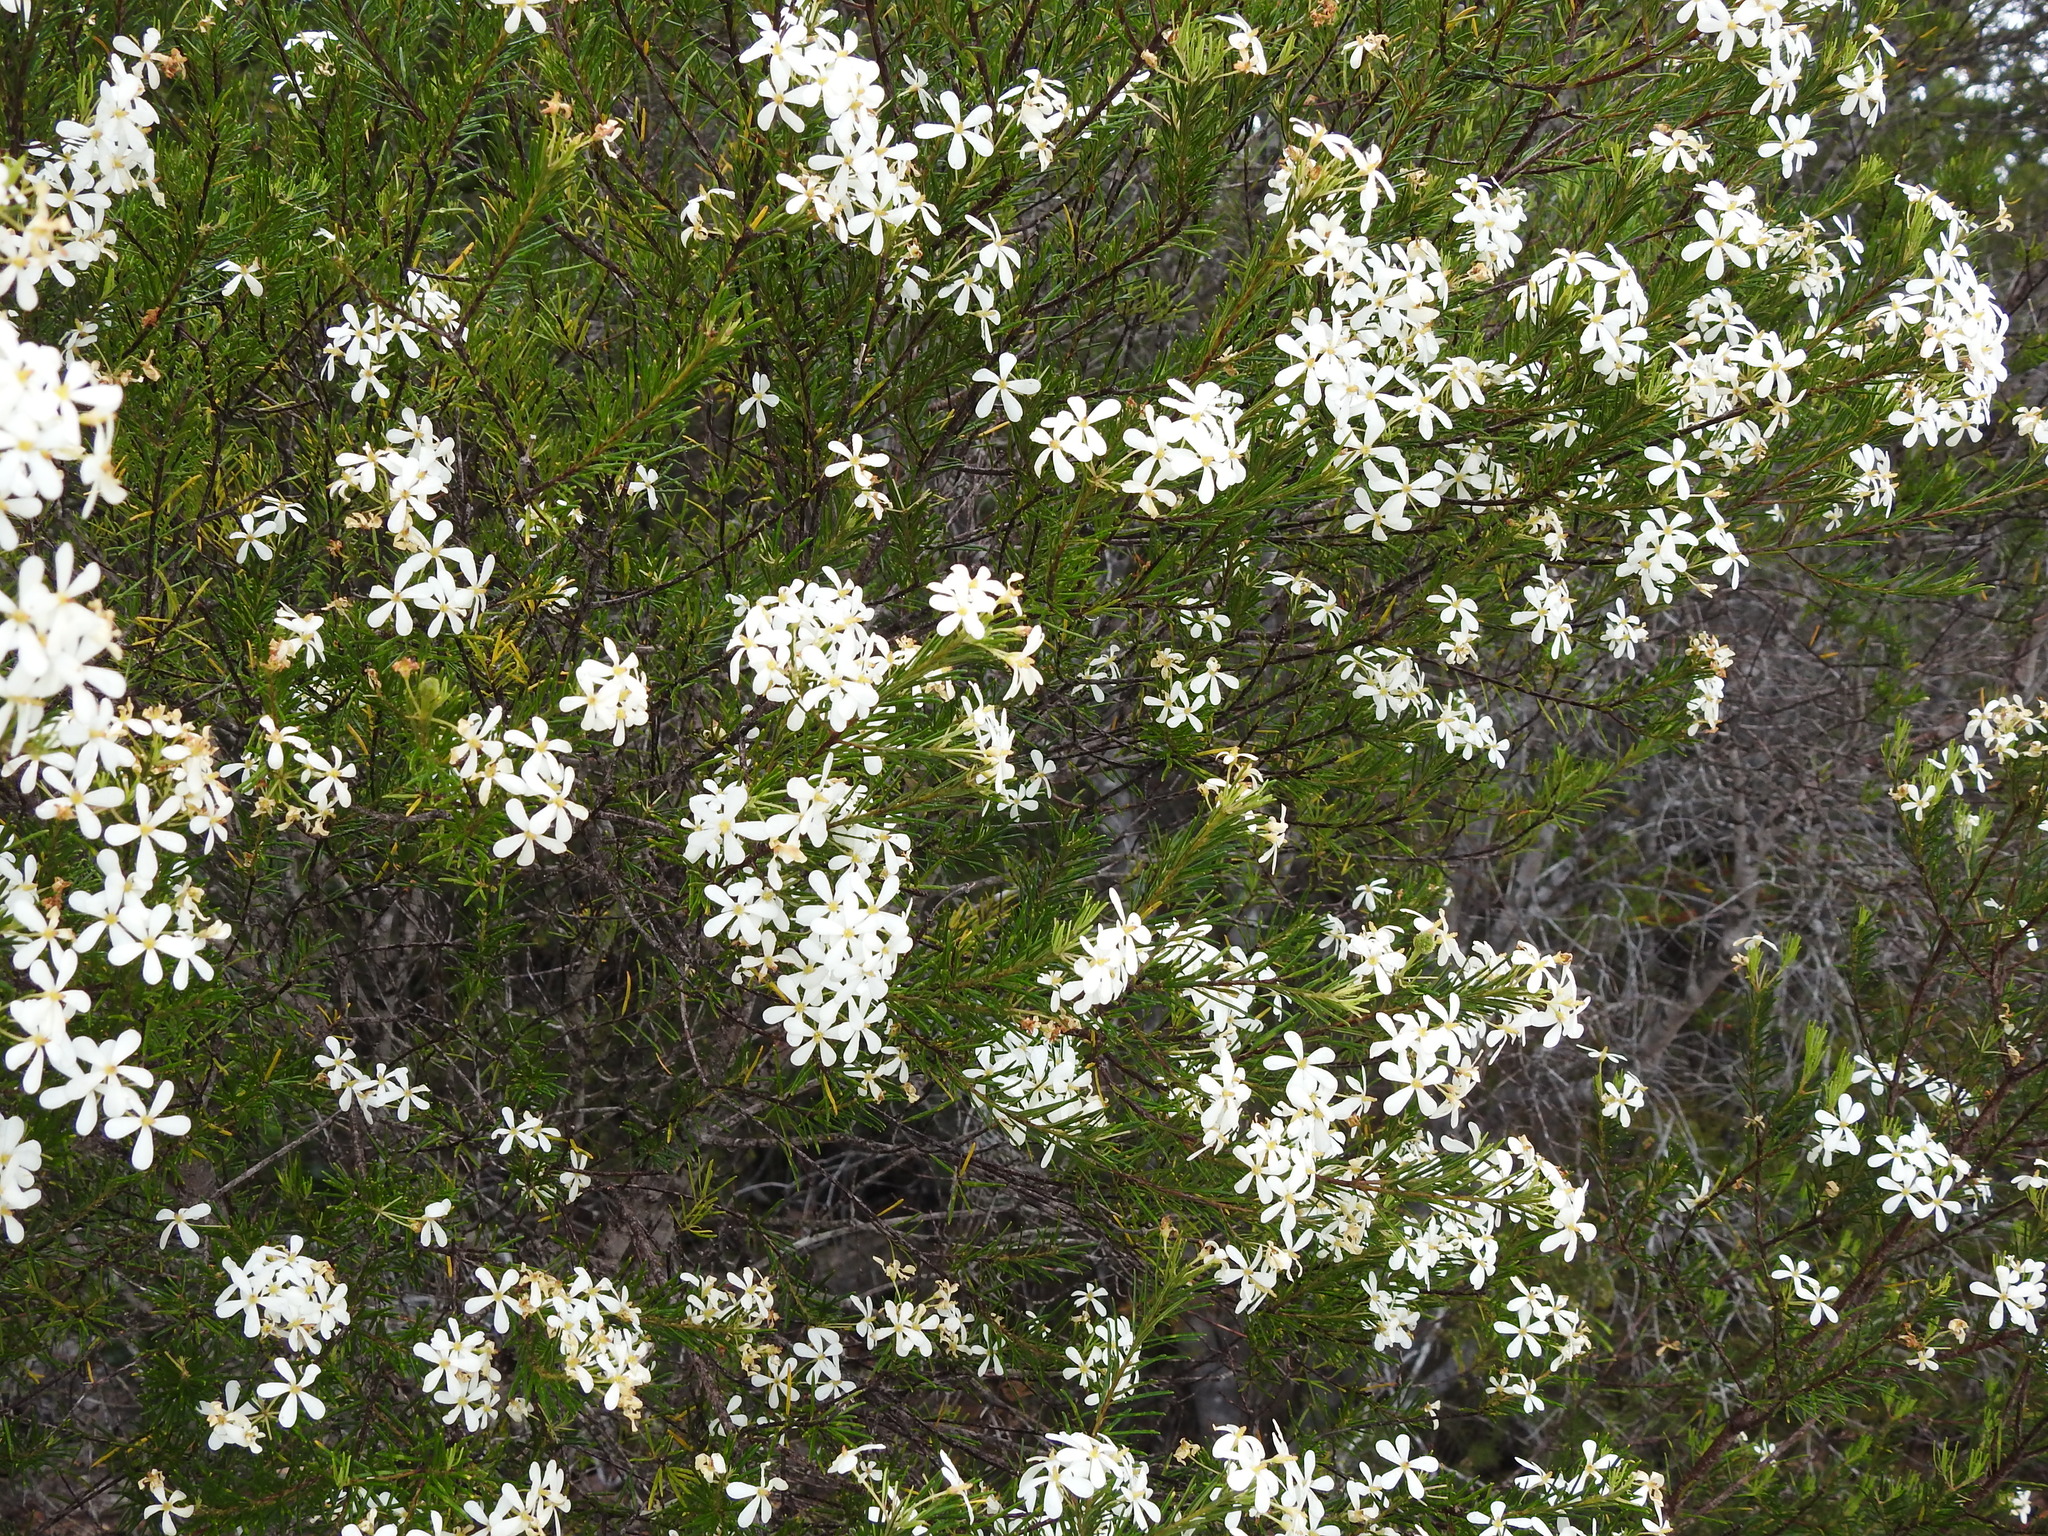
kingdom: Plantae
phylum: Tracheophyta
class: Magnoliopsida
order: Malpighiales
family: Euphorbiaceae
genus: Ricinocarpos
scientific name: Ricinocarpos pinifolius
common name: Weddingbush
